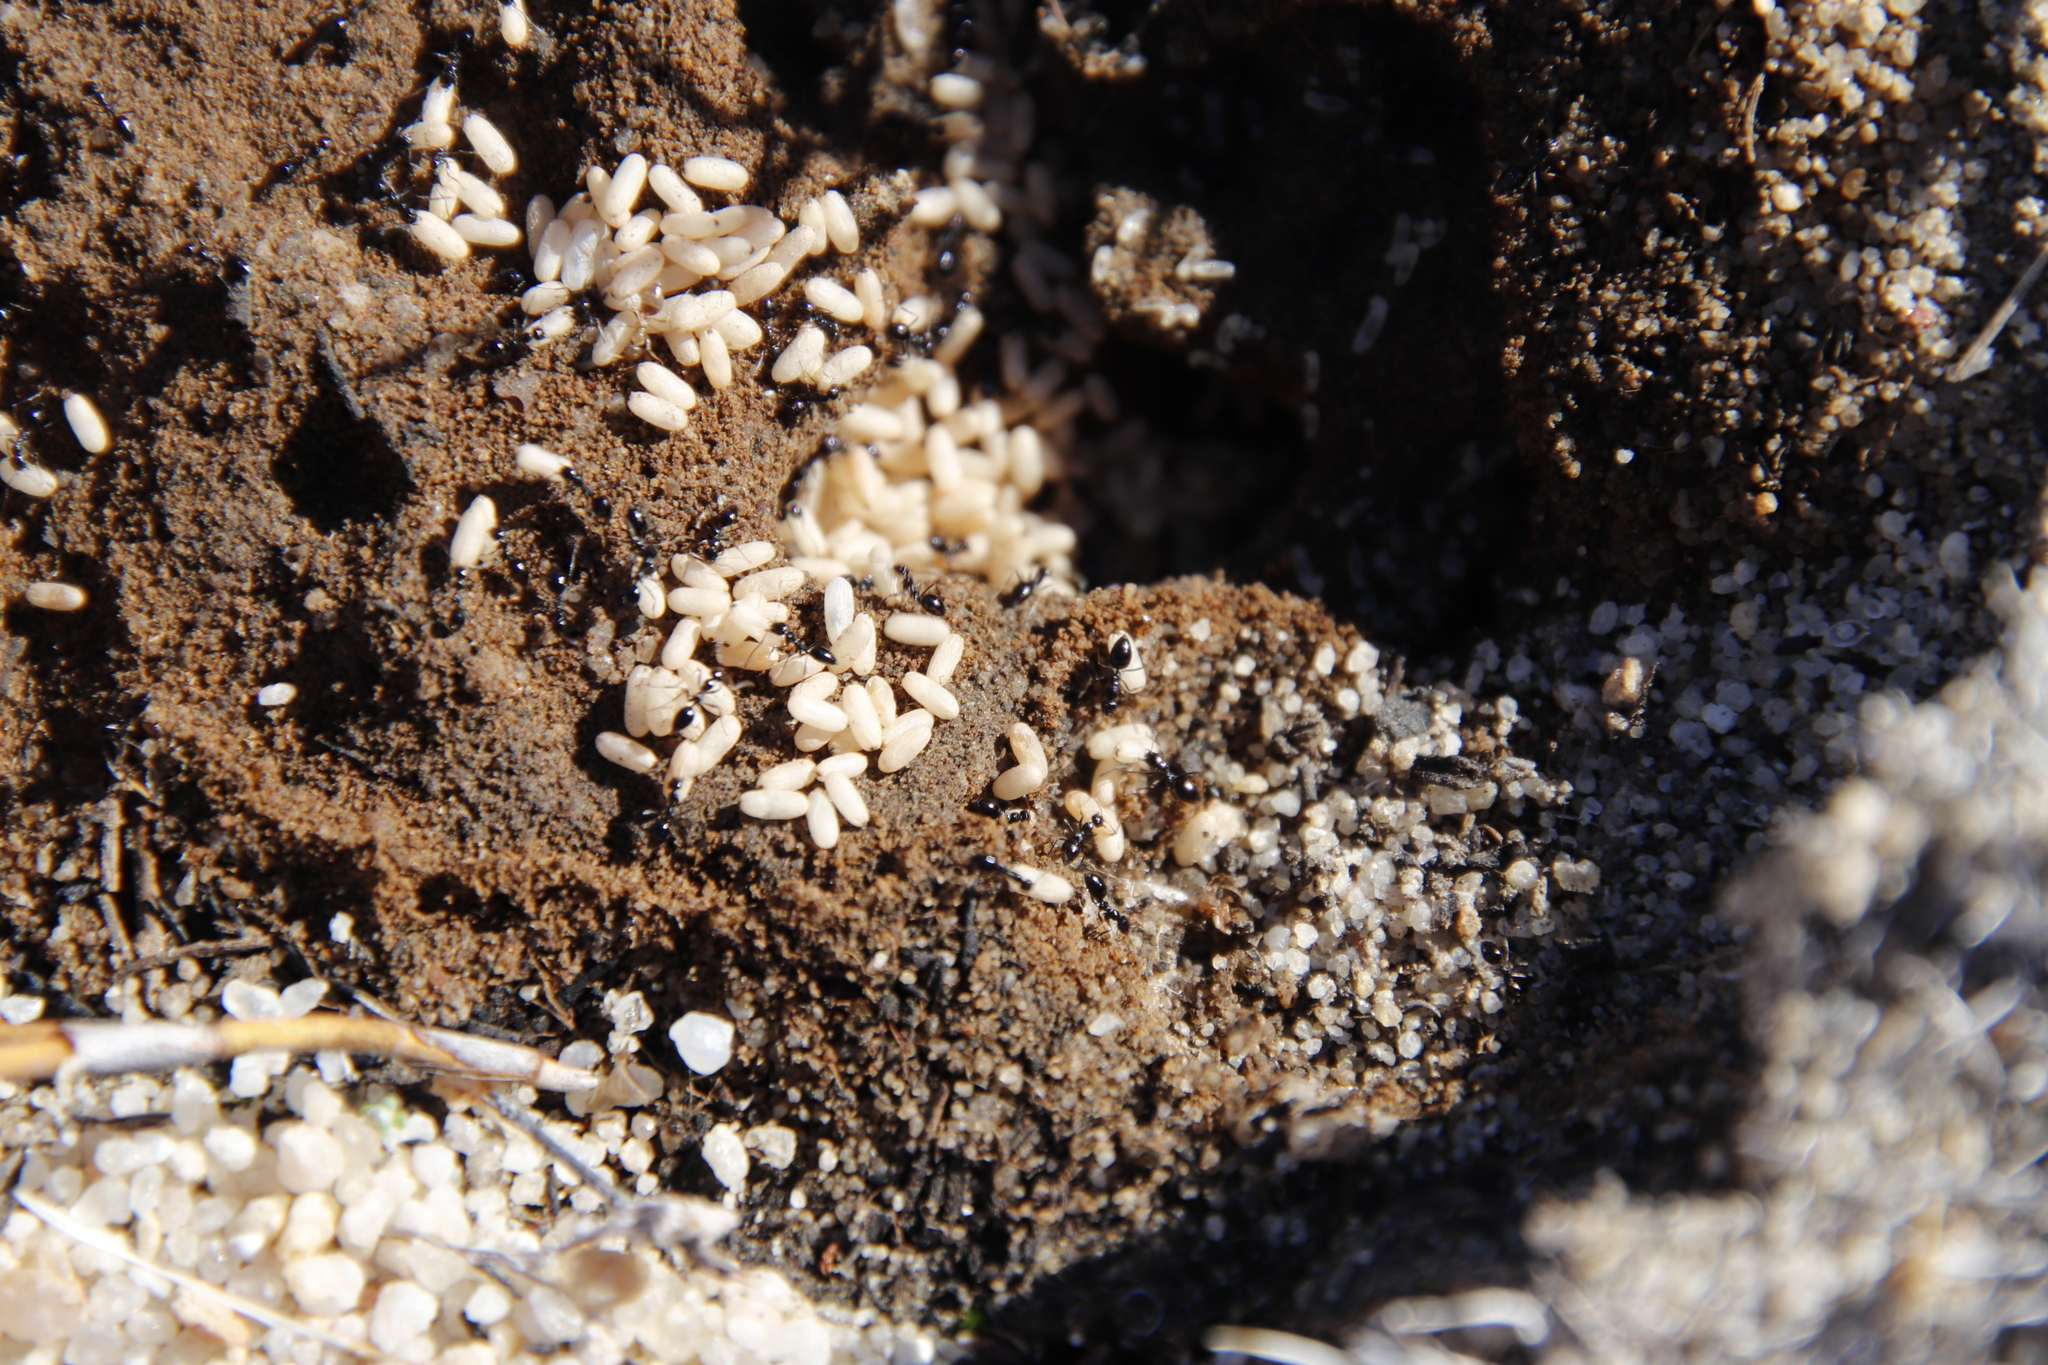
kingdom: Animalia
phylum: Arthropoda
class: Insecta
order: Hymenoptera
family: Formicidae
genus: Lepisiota
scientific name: Lepisiota capensis
